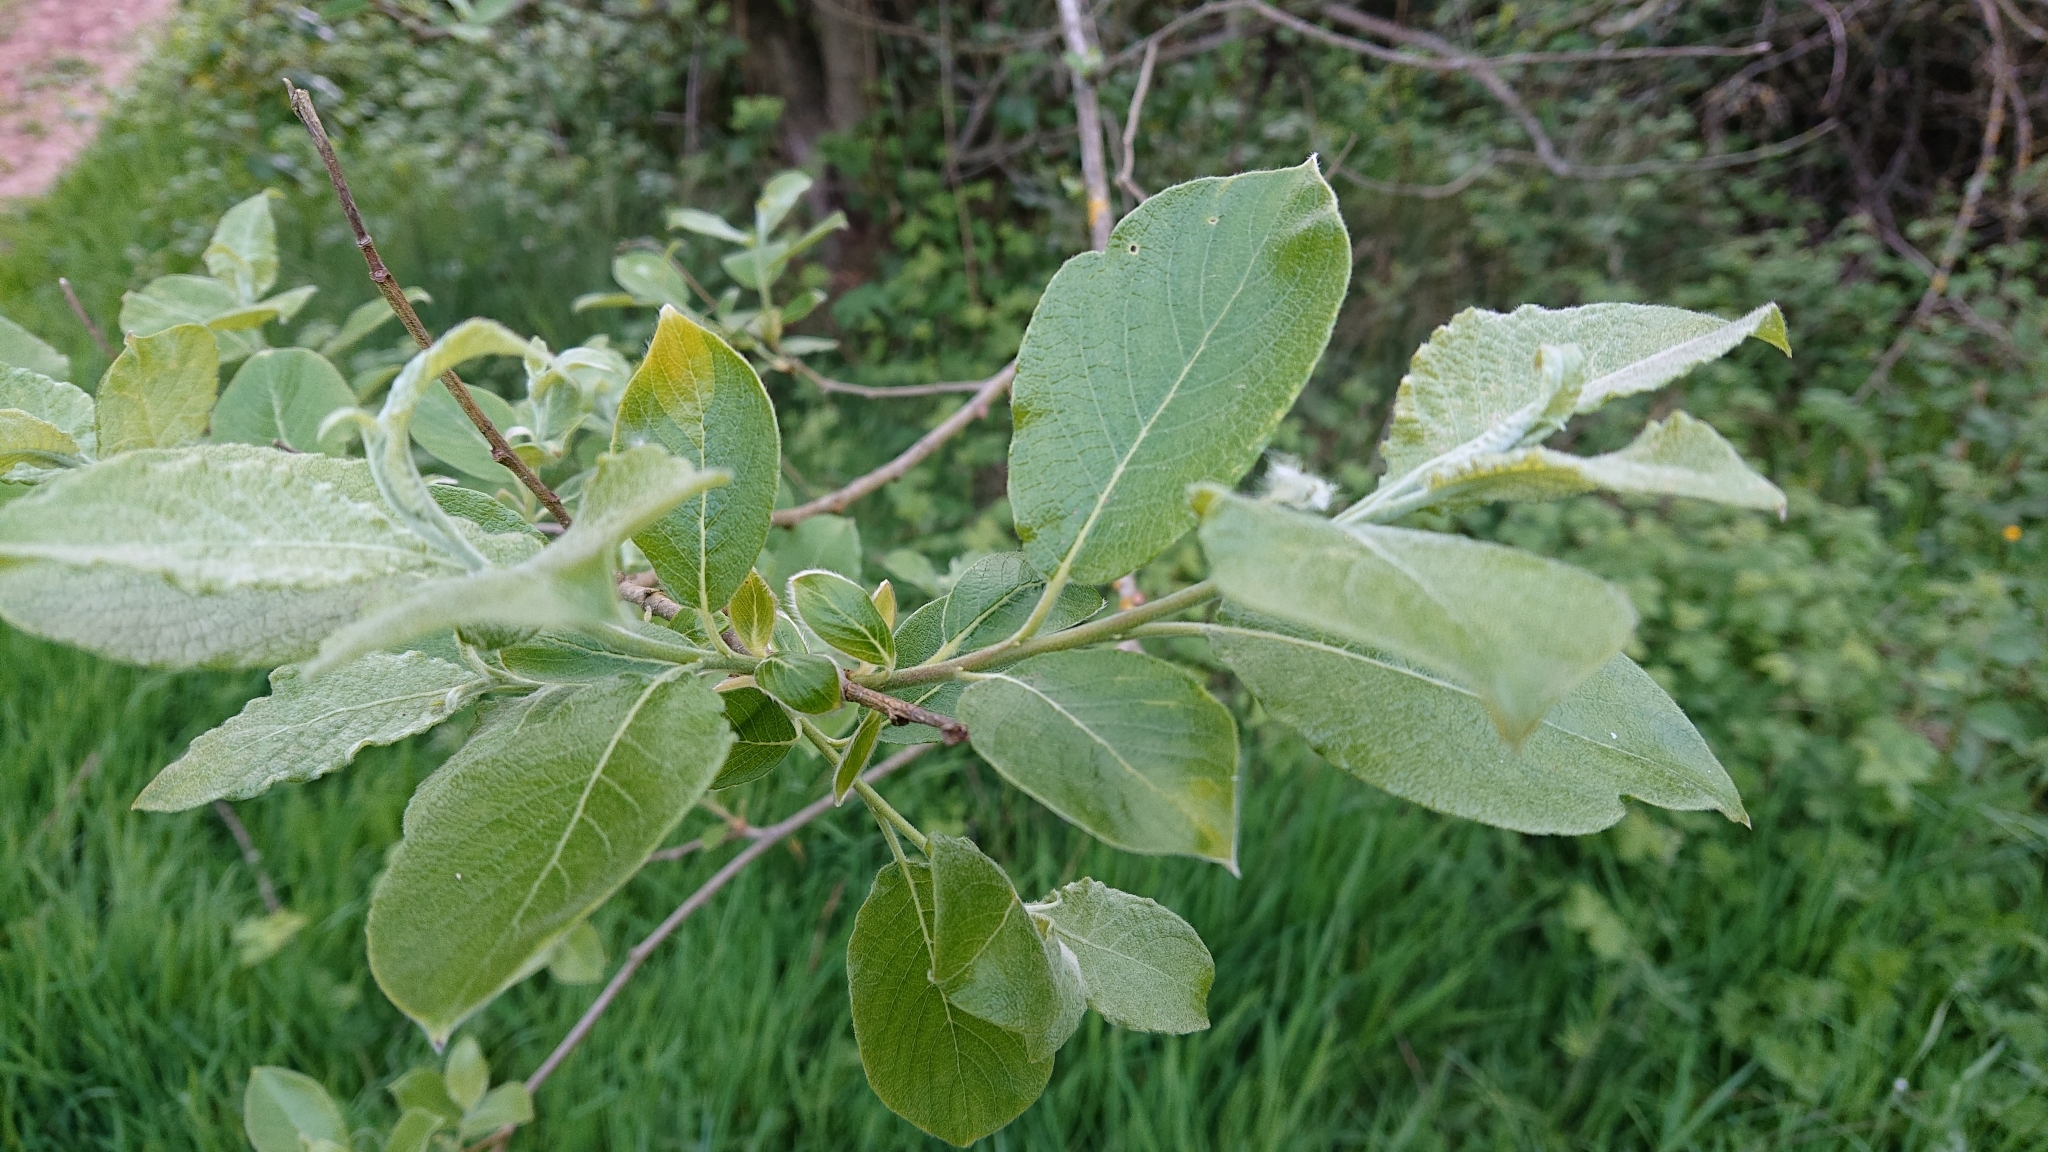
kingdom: Plantae
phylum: Tracheophyta
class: Magnoliopsida
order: Malpighiales
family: Salicaceae
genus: Salix
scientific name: Salix caprea
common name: Goat willow
